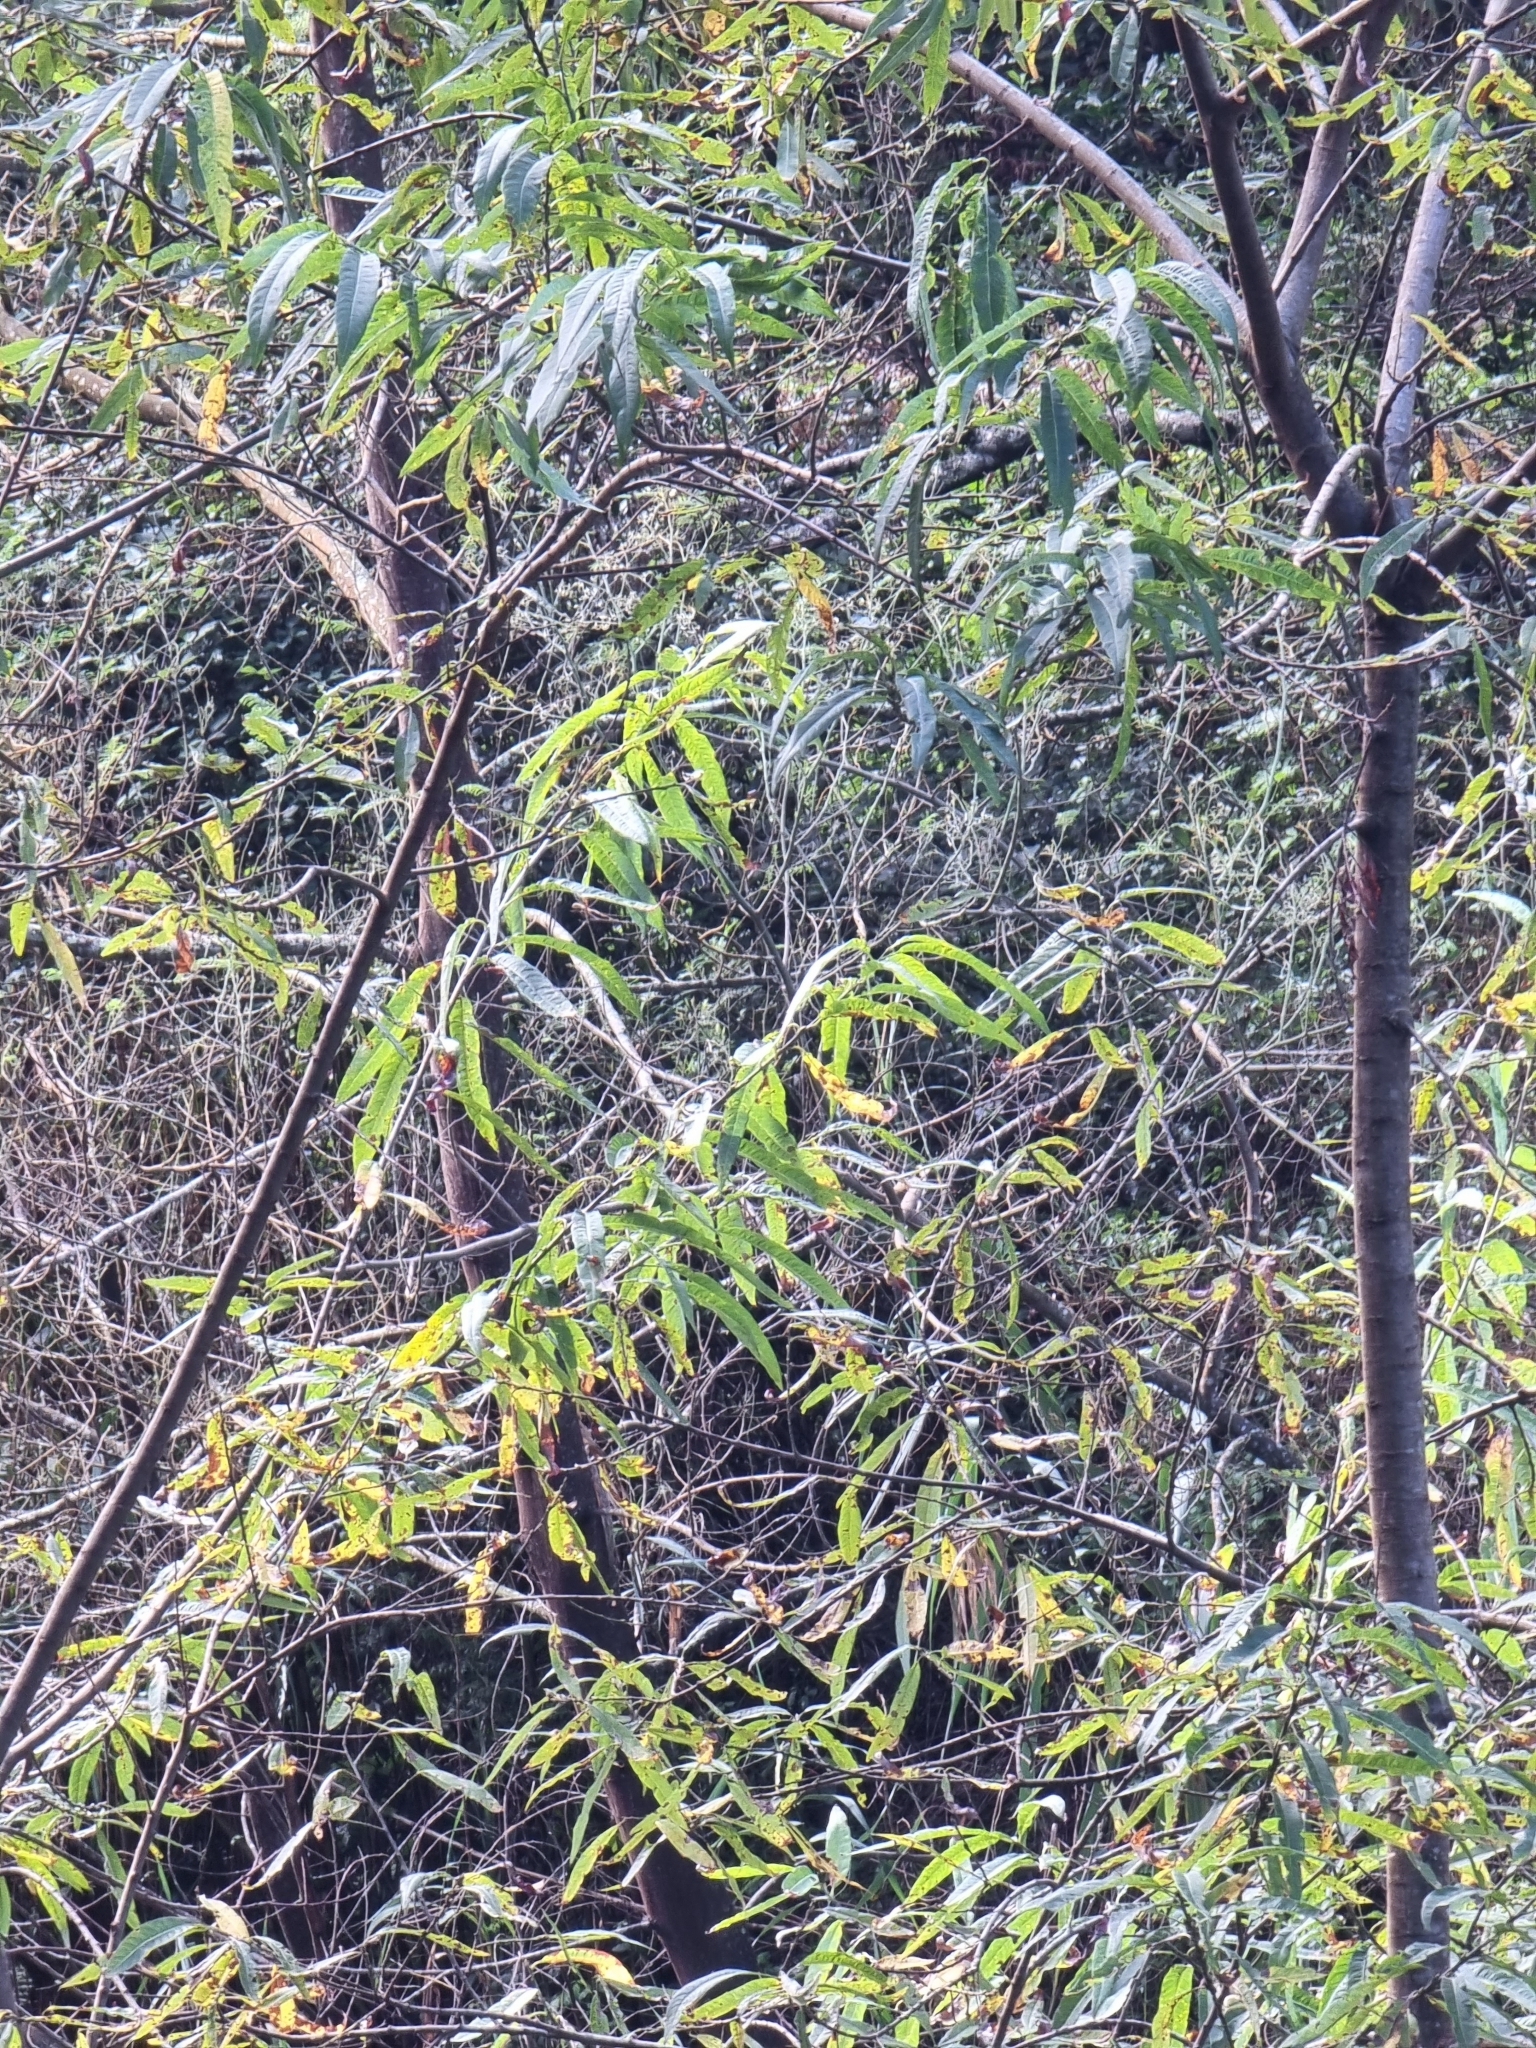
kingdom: Plantae
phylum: Tracheophyta
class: Magnoliopsida
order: Malpighiales
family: Salicaceae
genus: Salix
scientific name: Salix canariensis
